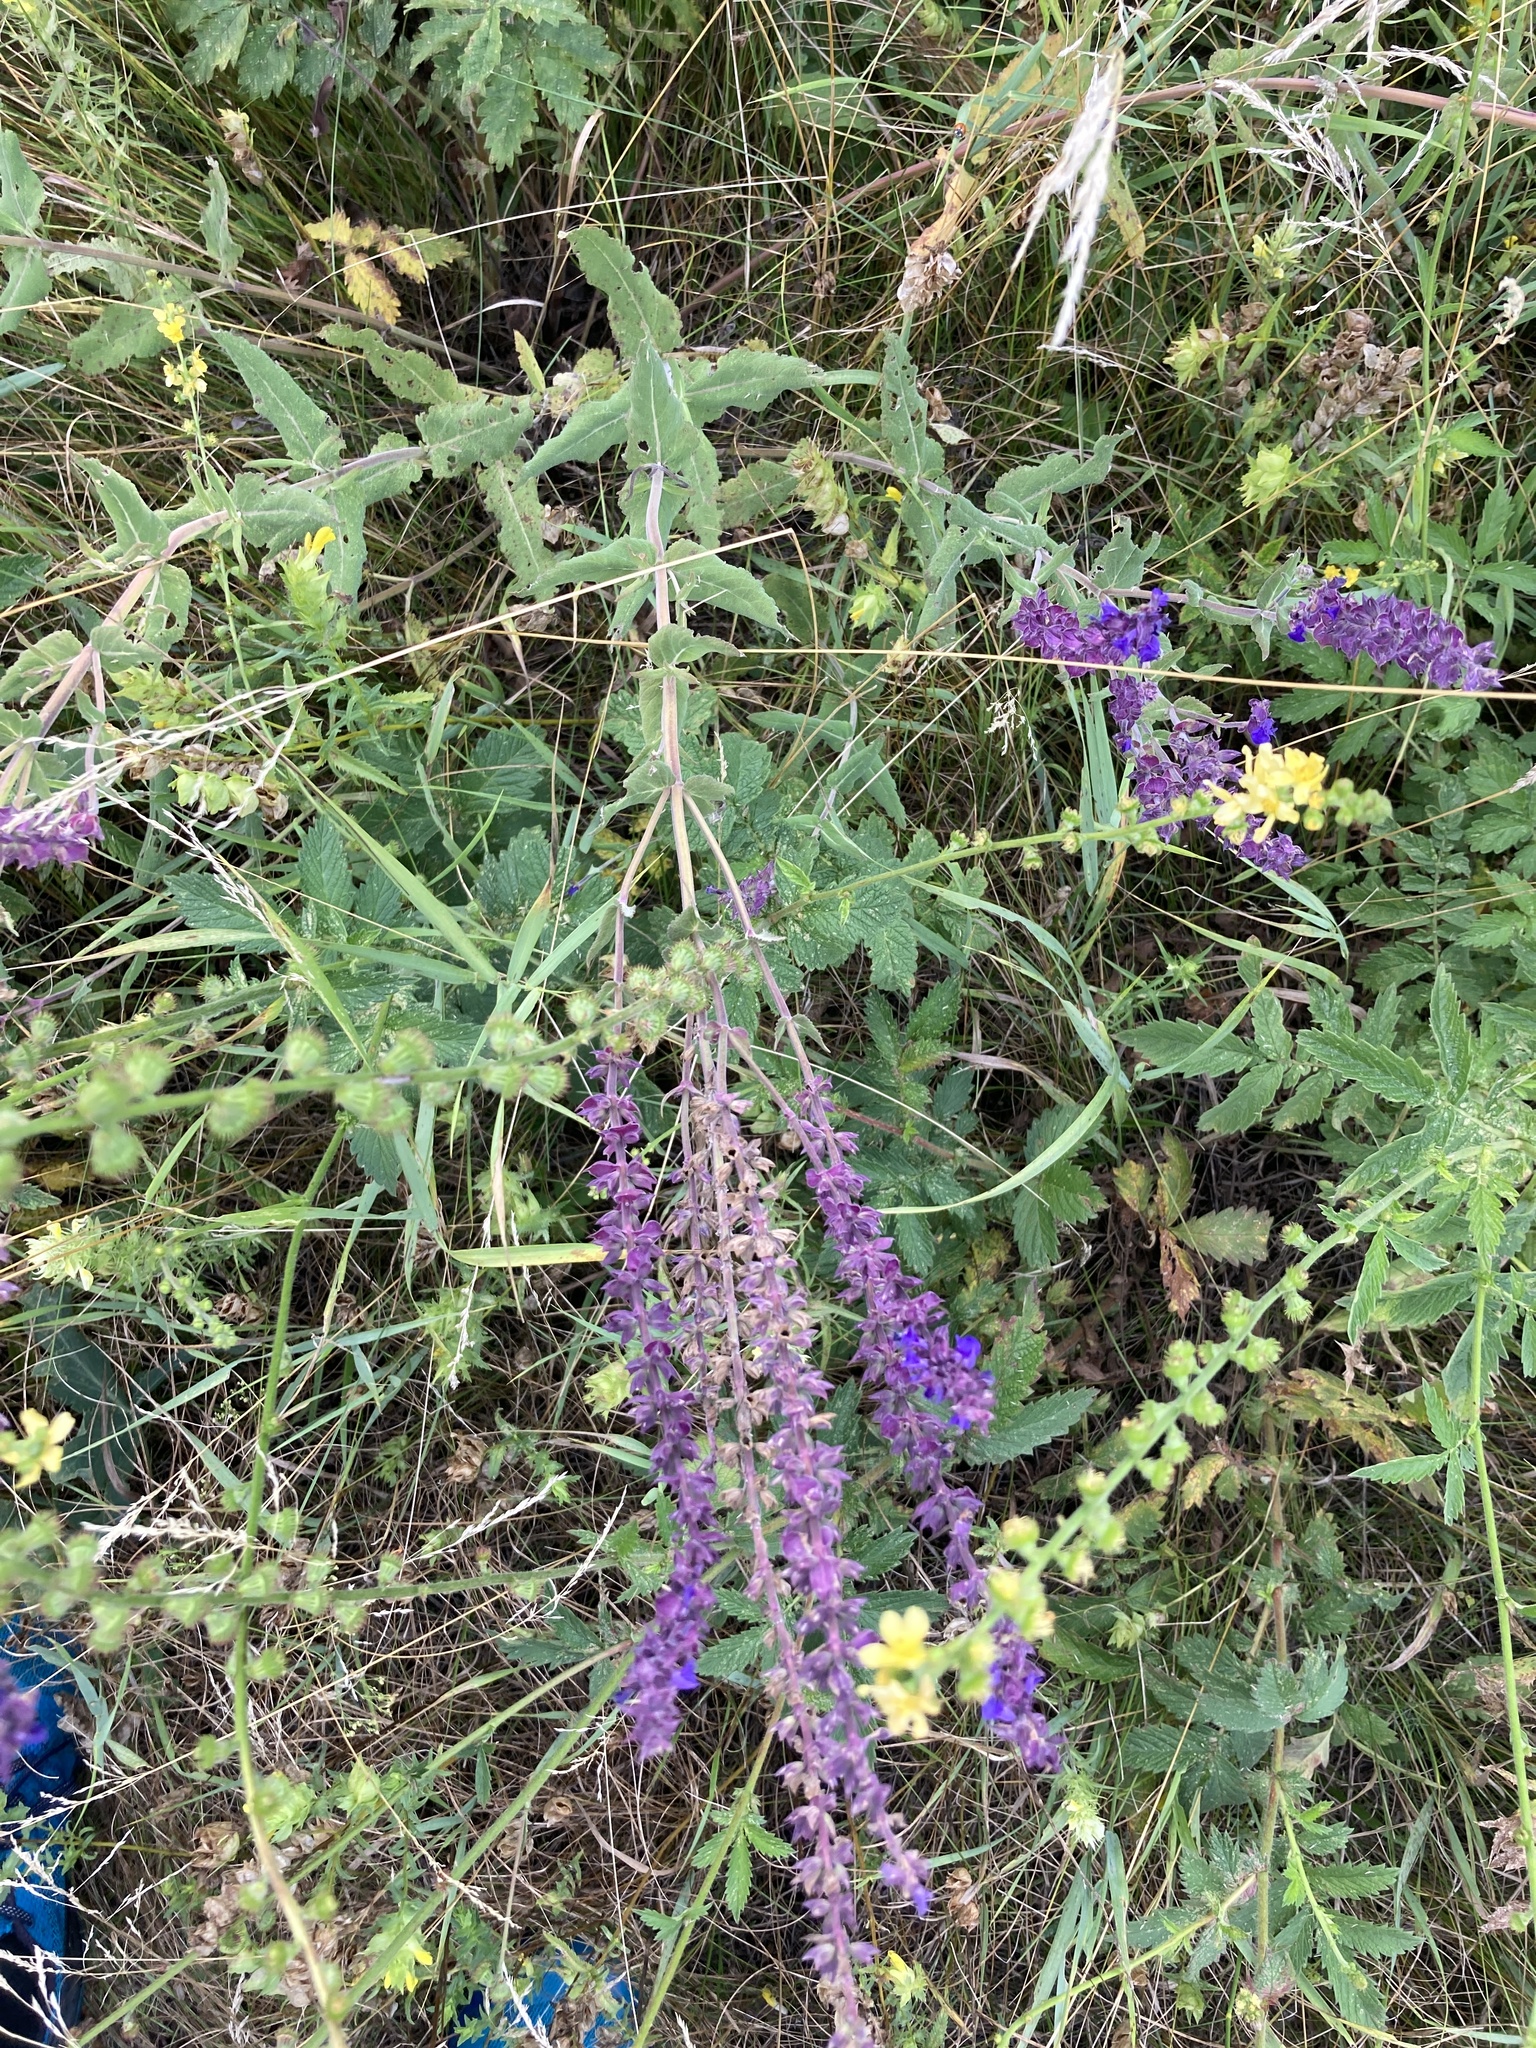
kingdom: Plantae
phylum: Tracheophyta
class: Magnoliopsida
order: Lamiales
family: Lamiaceae
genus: Salvia
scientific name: Salvia nemorosa
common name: Balkan clary
